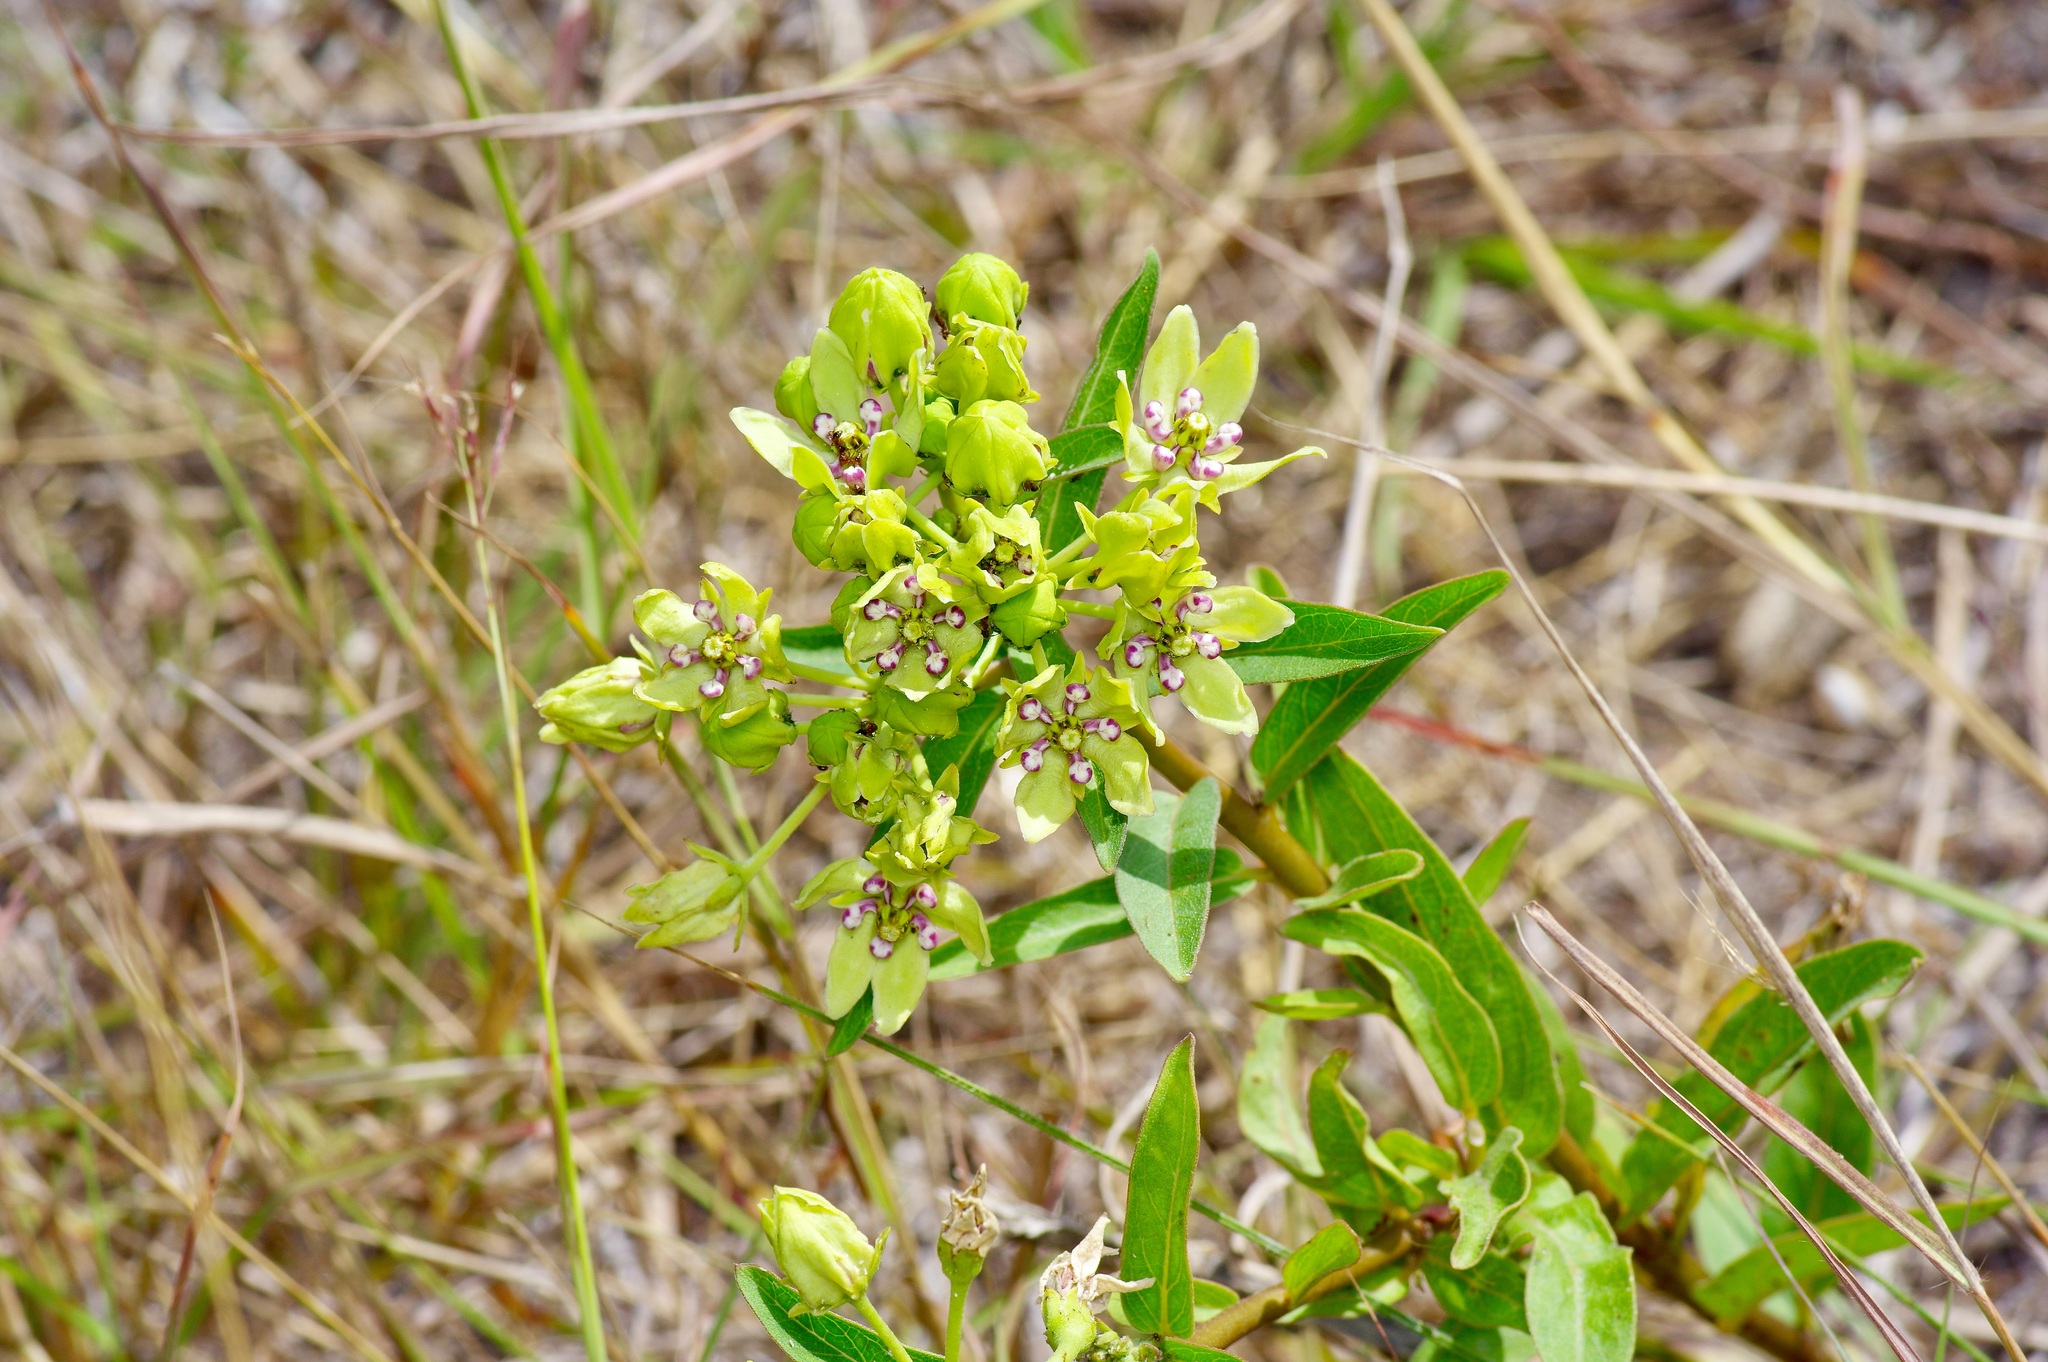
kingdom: Plantae
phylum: Tracheophyta
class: Magnoliopsida
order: Gentianales
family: Apocynaceae
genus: Asclepias
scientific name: Asclepias viridis
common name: Antelope-horns
